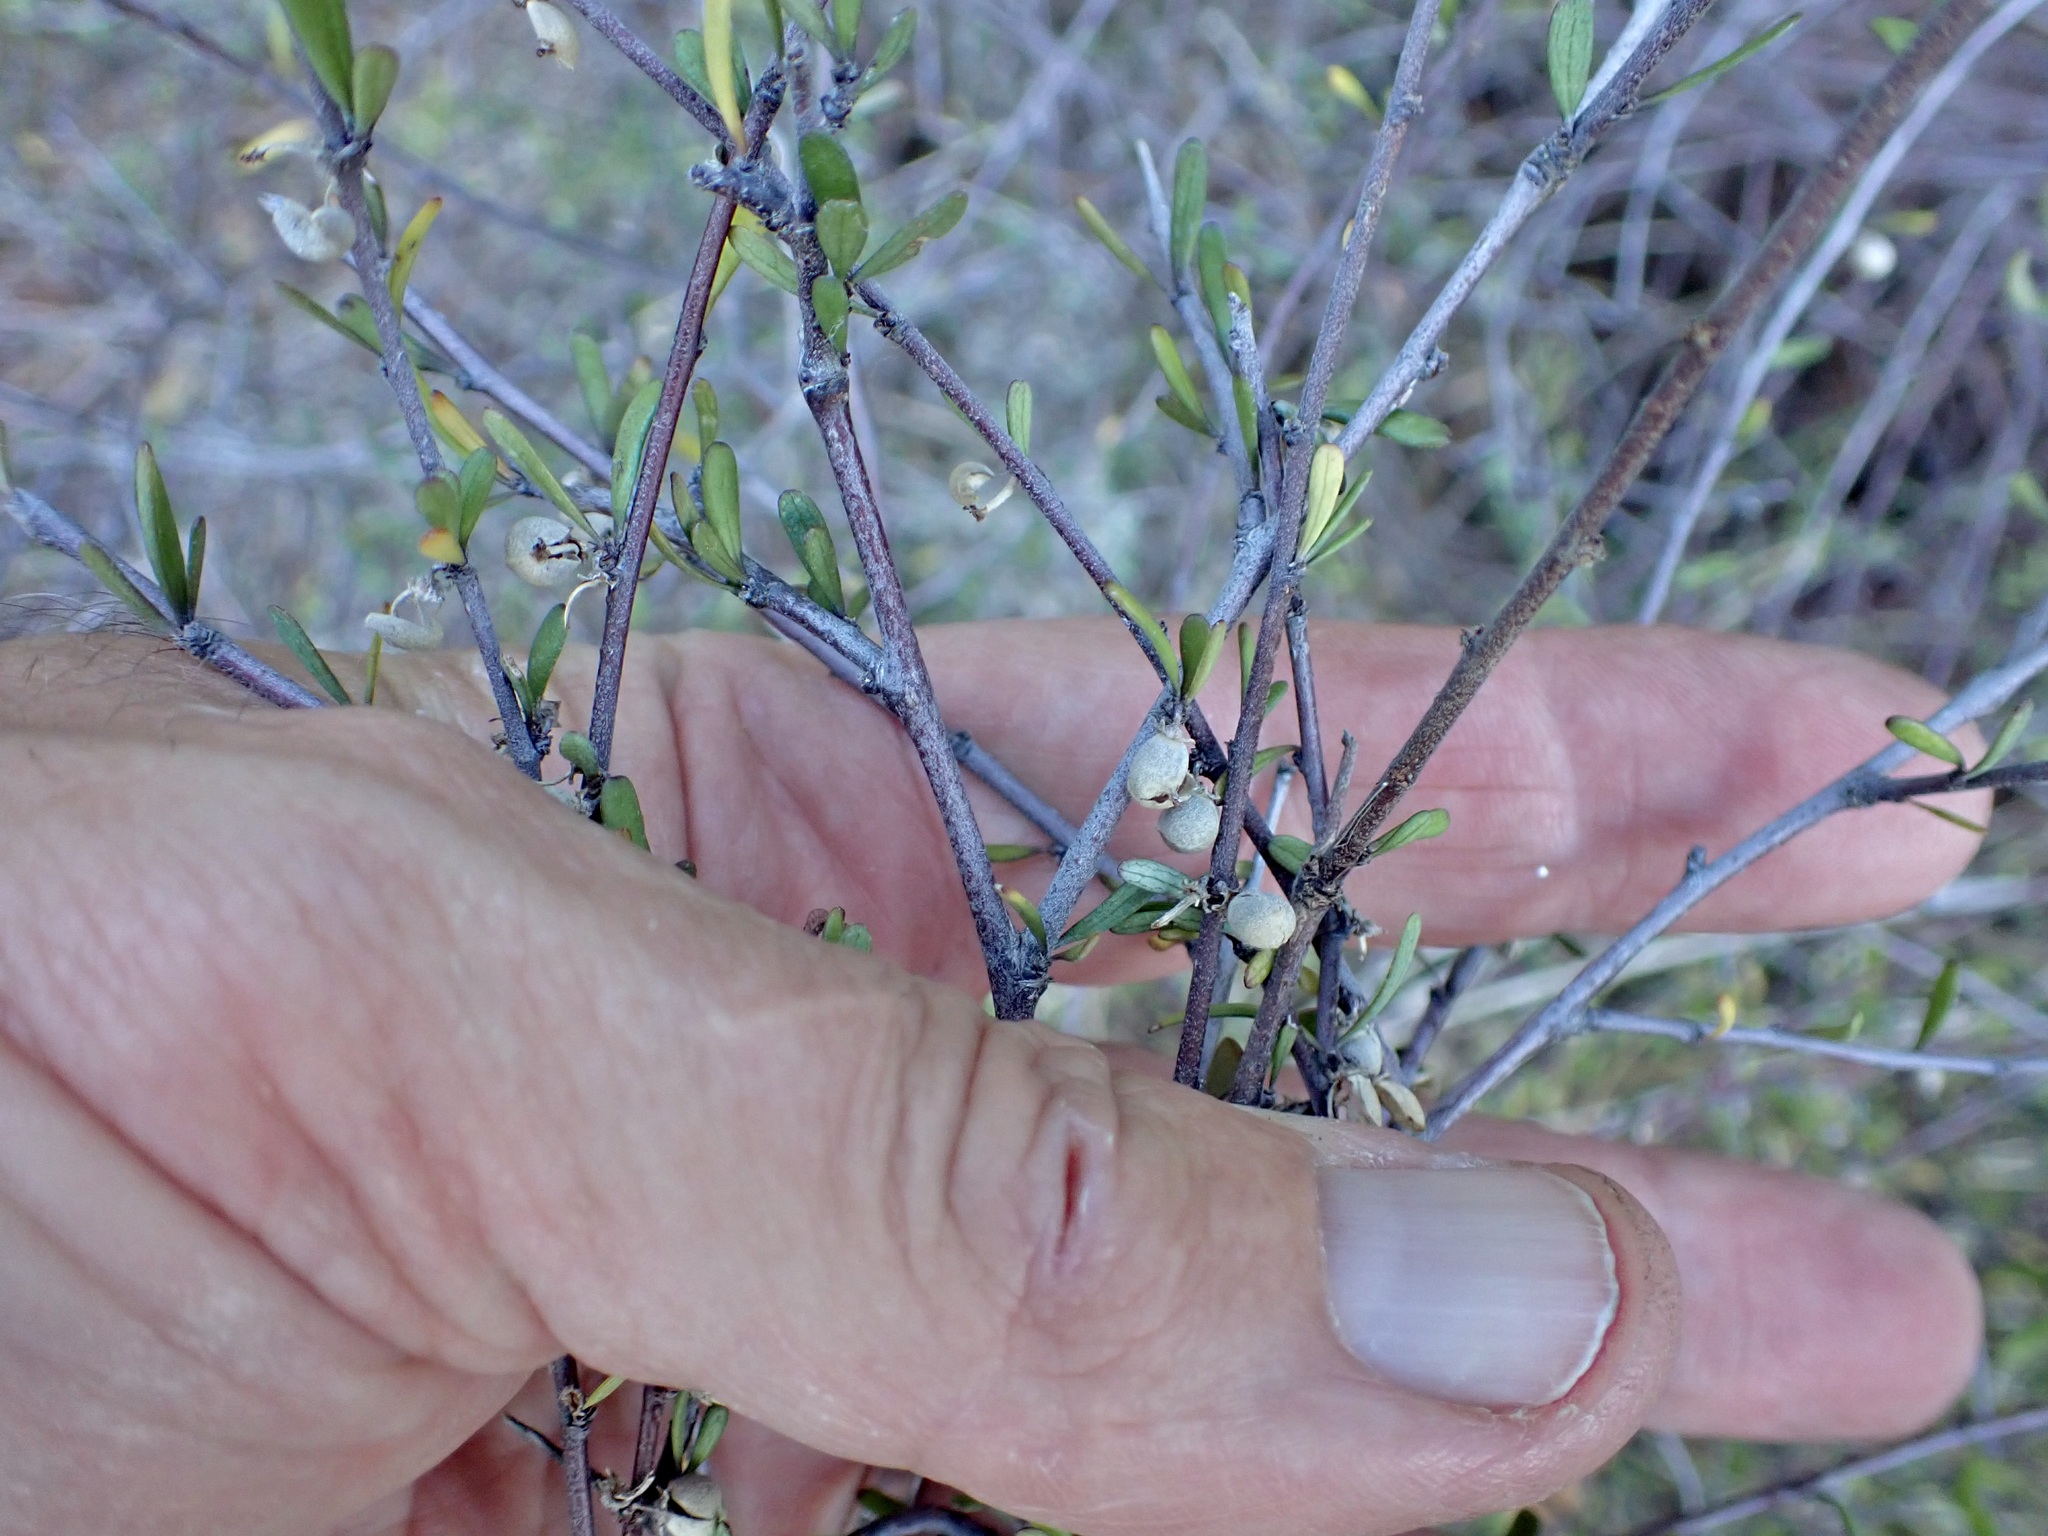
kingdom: Plantae
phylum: Tracheophyta
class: Magnoliopsida
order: Malvales
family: Malvaceae
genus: Plagianthus
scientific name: Plagianthus divaricatus
